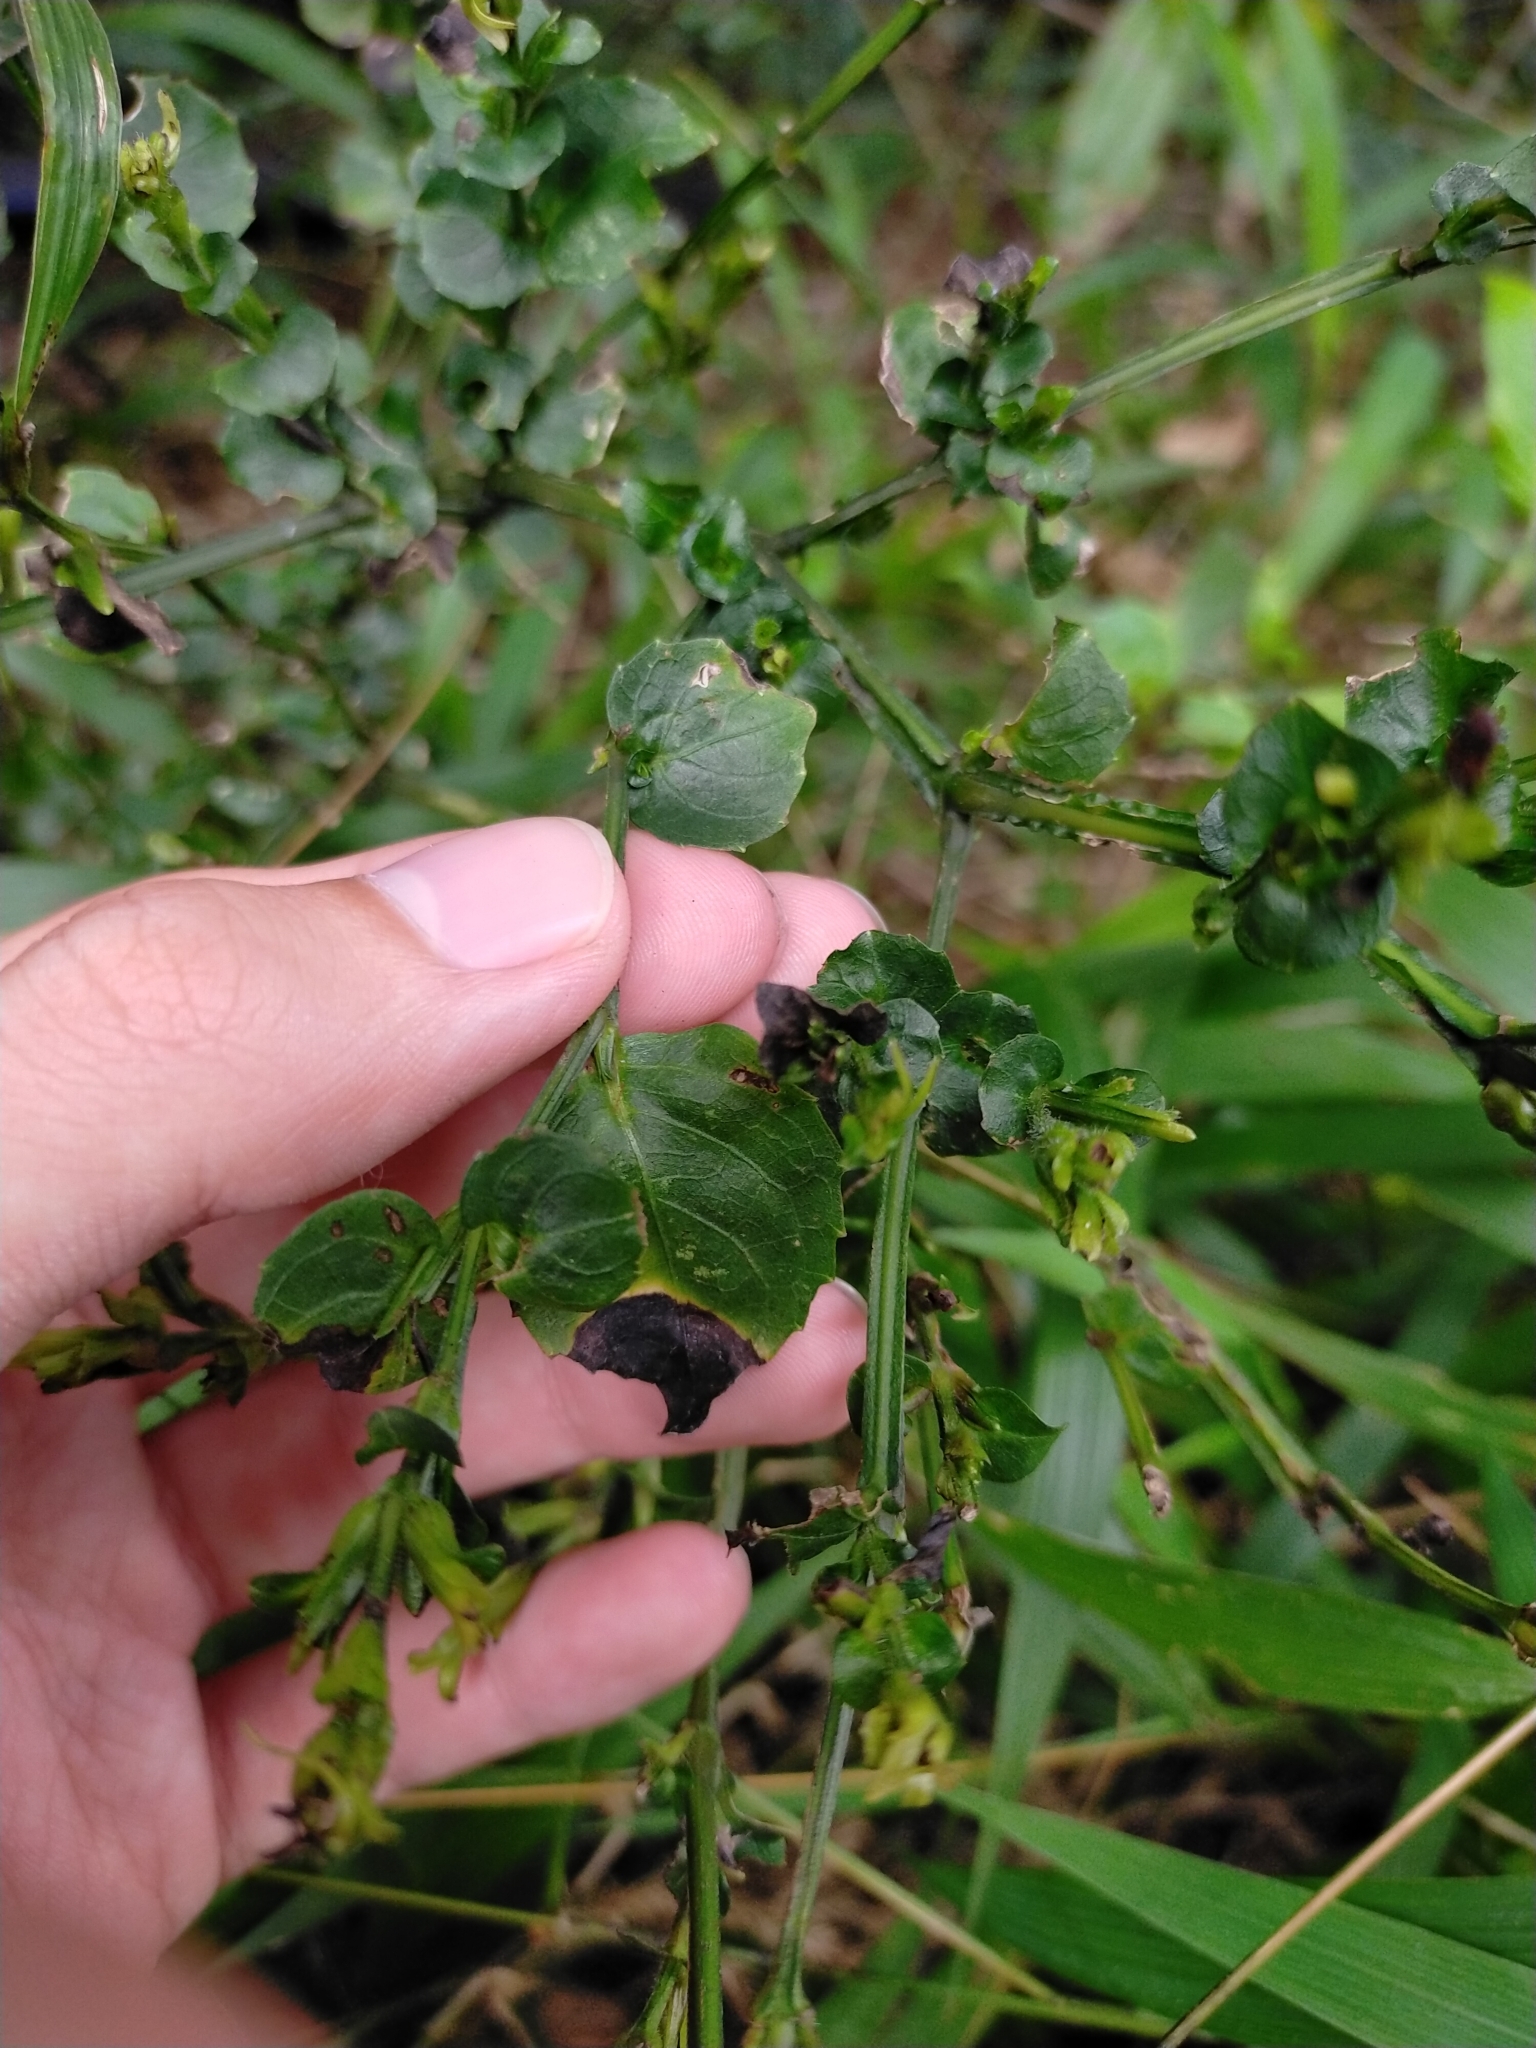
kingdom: Plantae
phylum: Tracheophyta
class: Magnoliopsida
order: Lamiales
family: Acanthaceae
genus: Strobilanthes
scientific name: Strobilanthes flexicaulis
